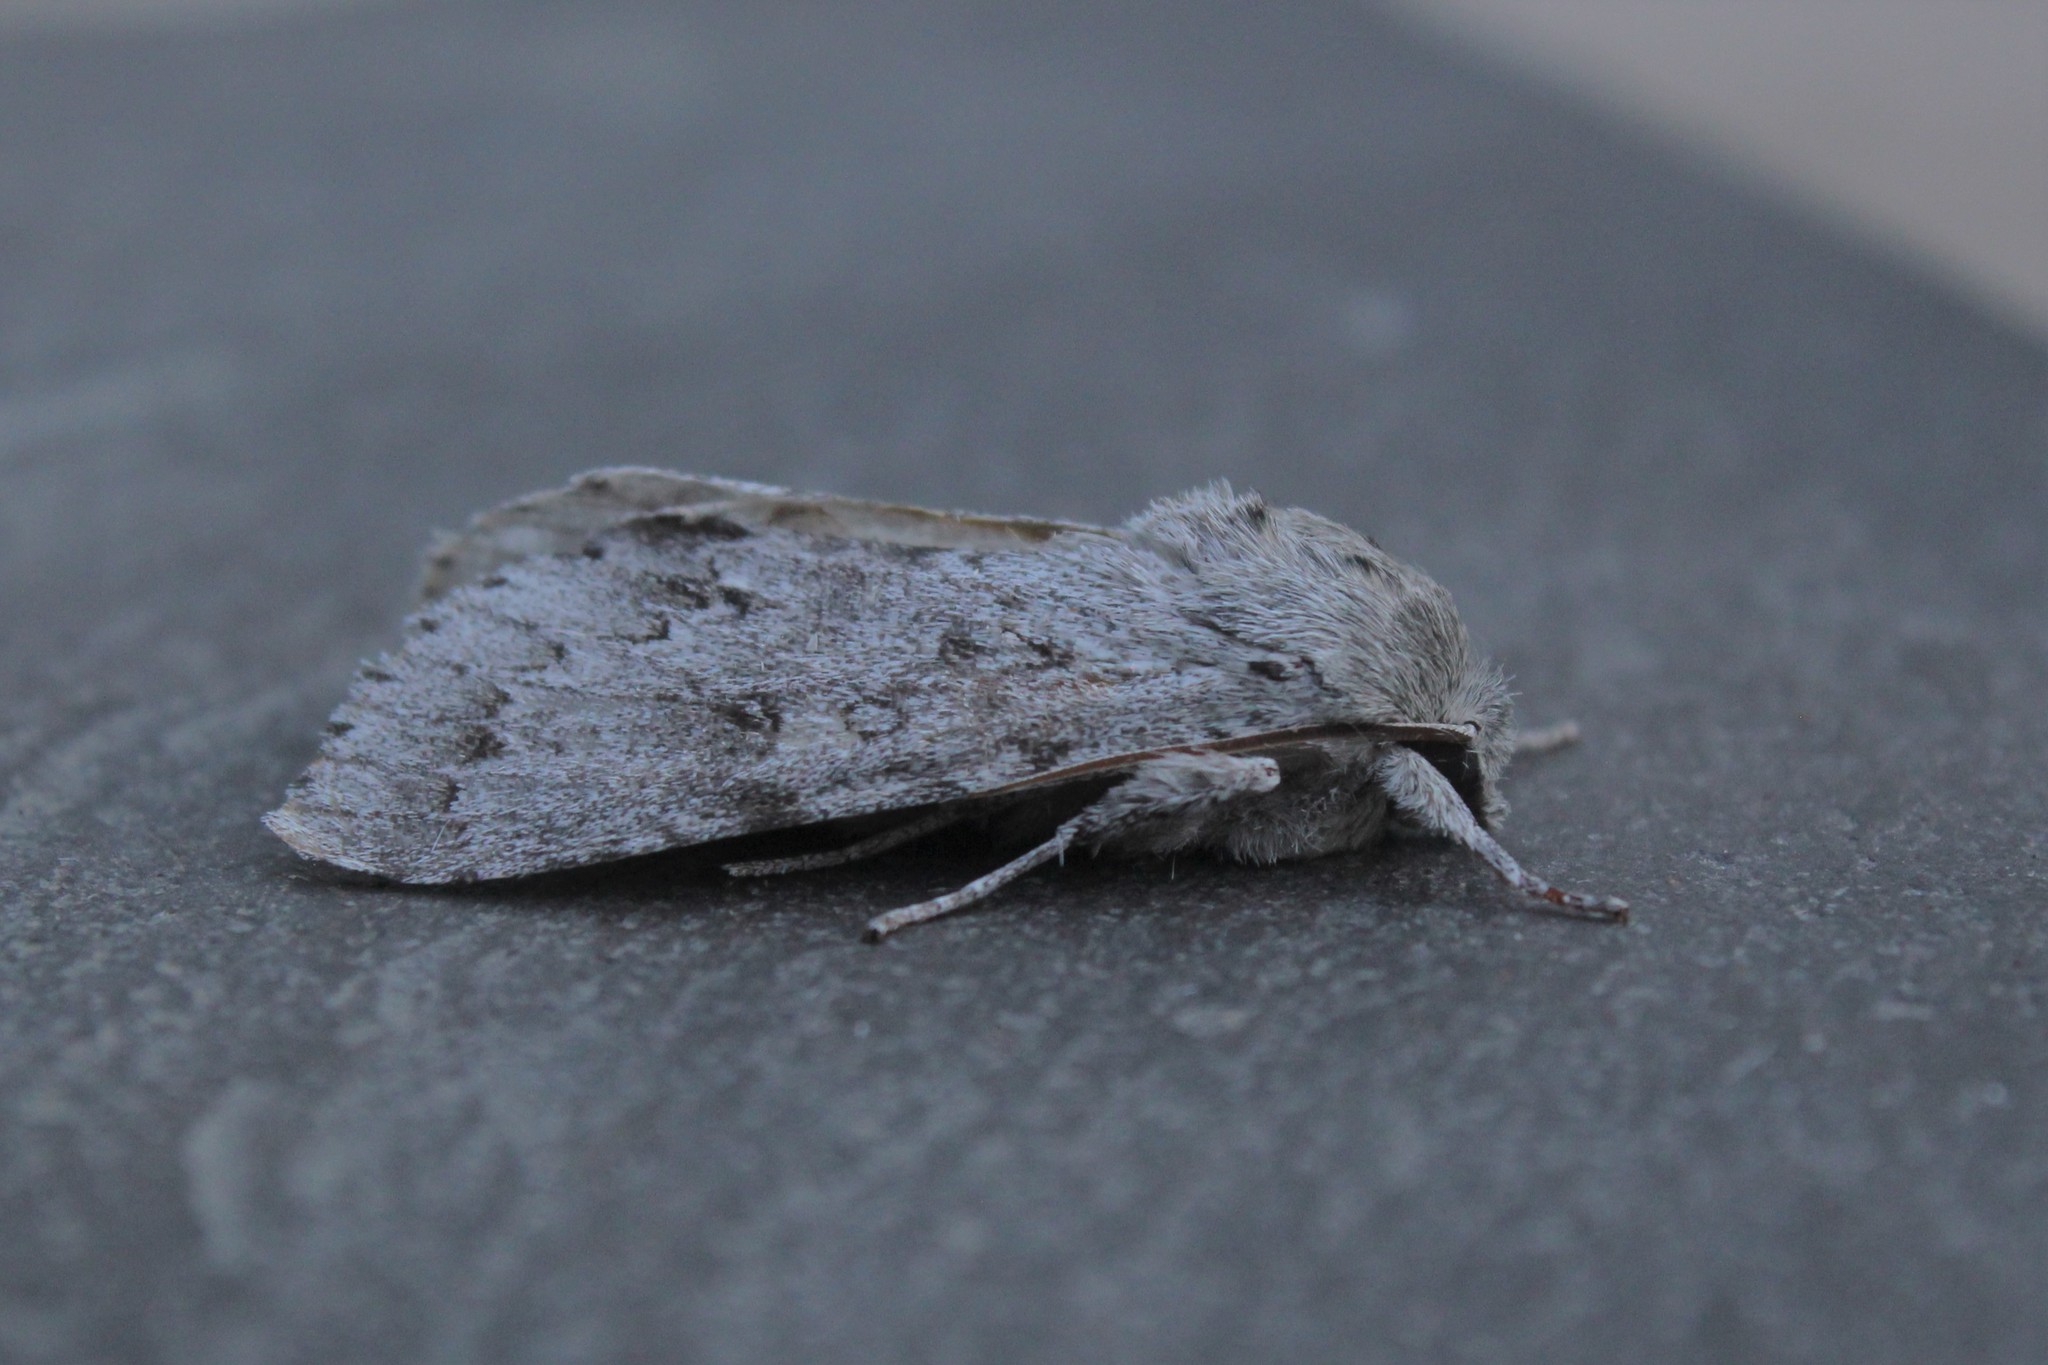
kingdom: Animalia
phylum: Arthropoda
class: Insecta
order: Lepidoptera
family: Noctuidae
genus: Acronicta
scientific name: Acronicta insita
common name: Large gray dagger
